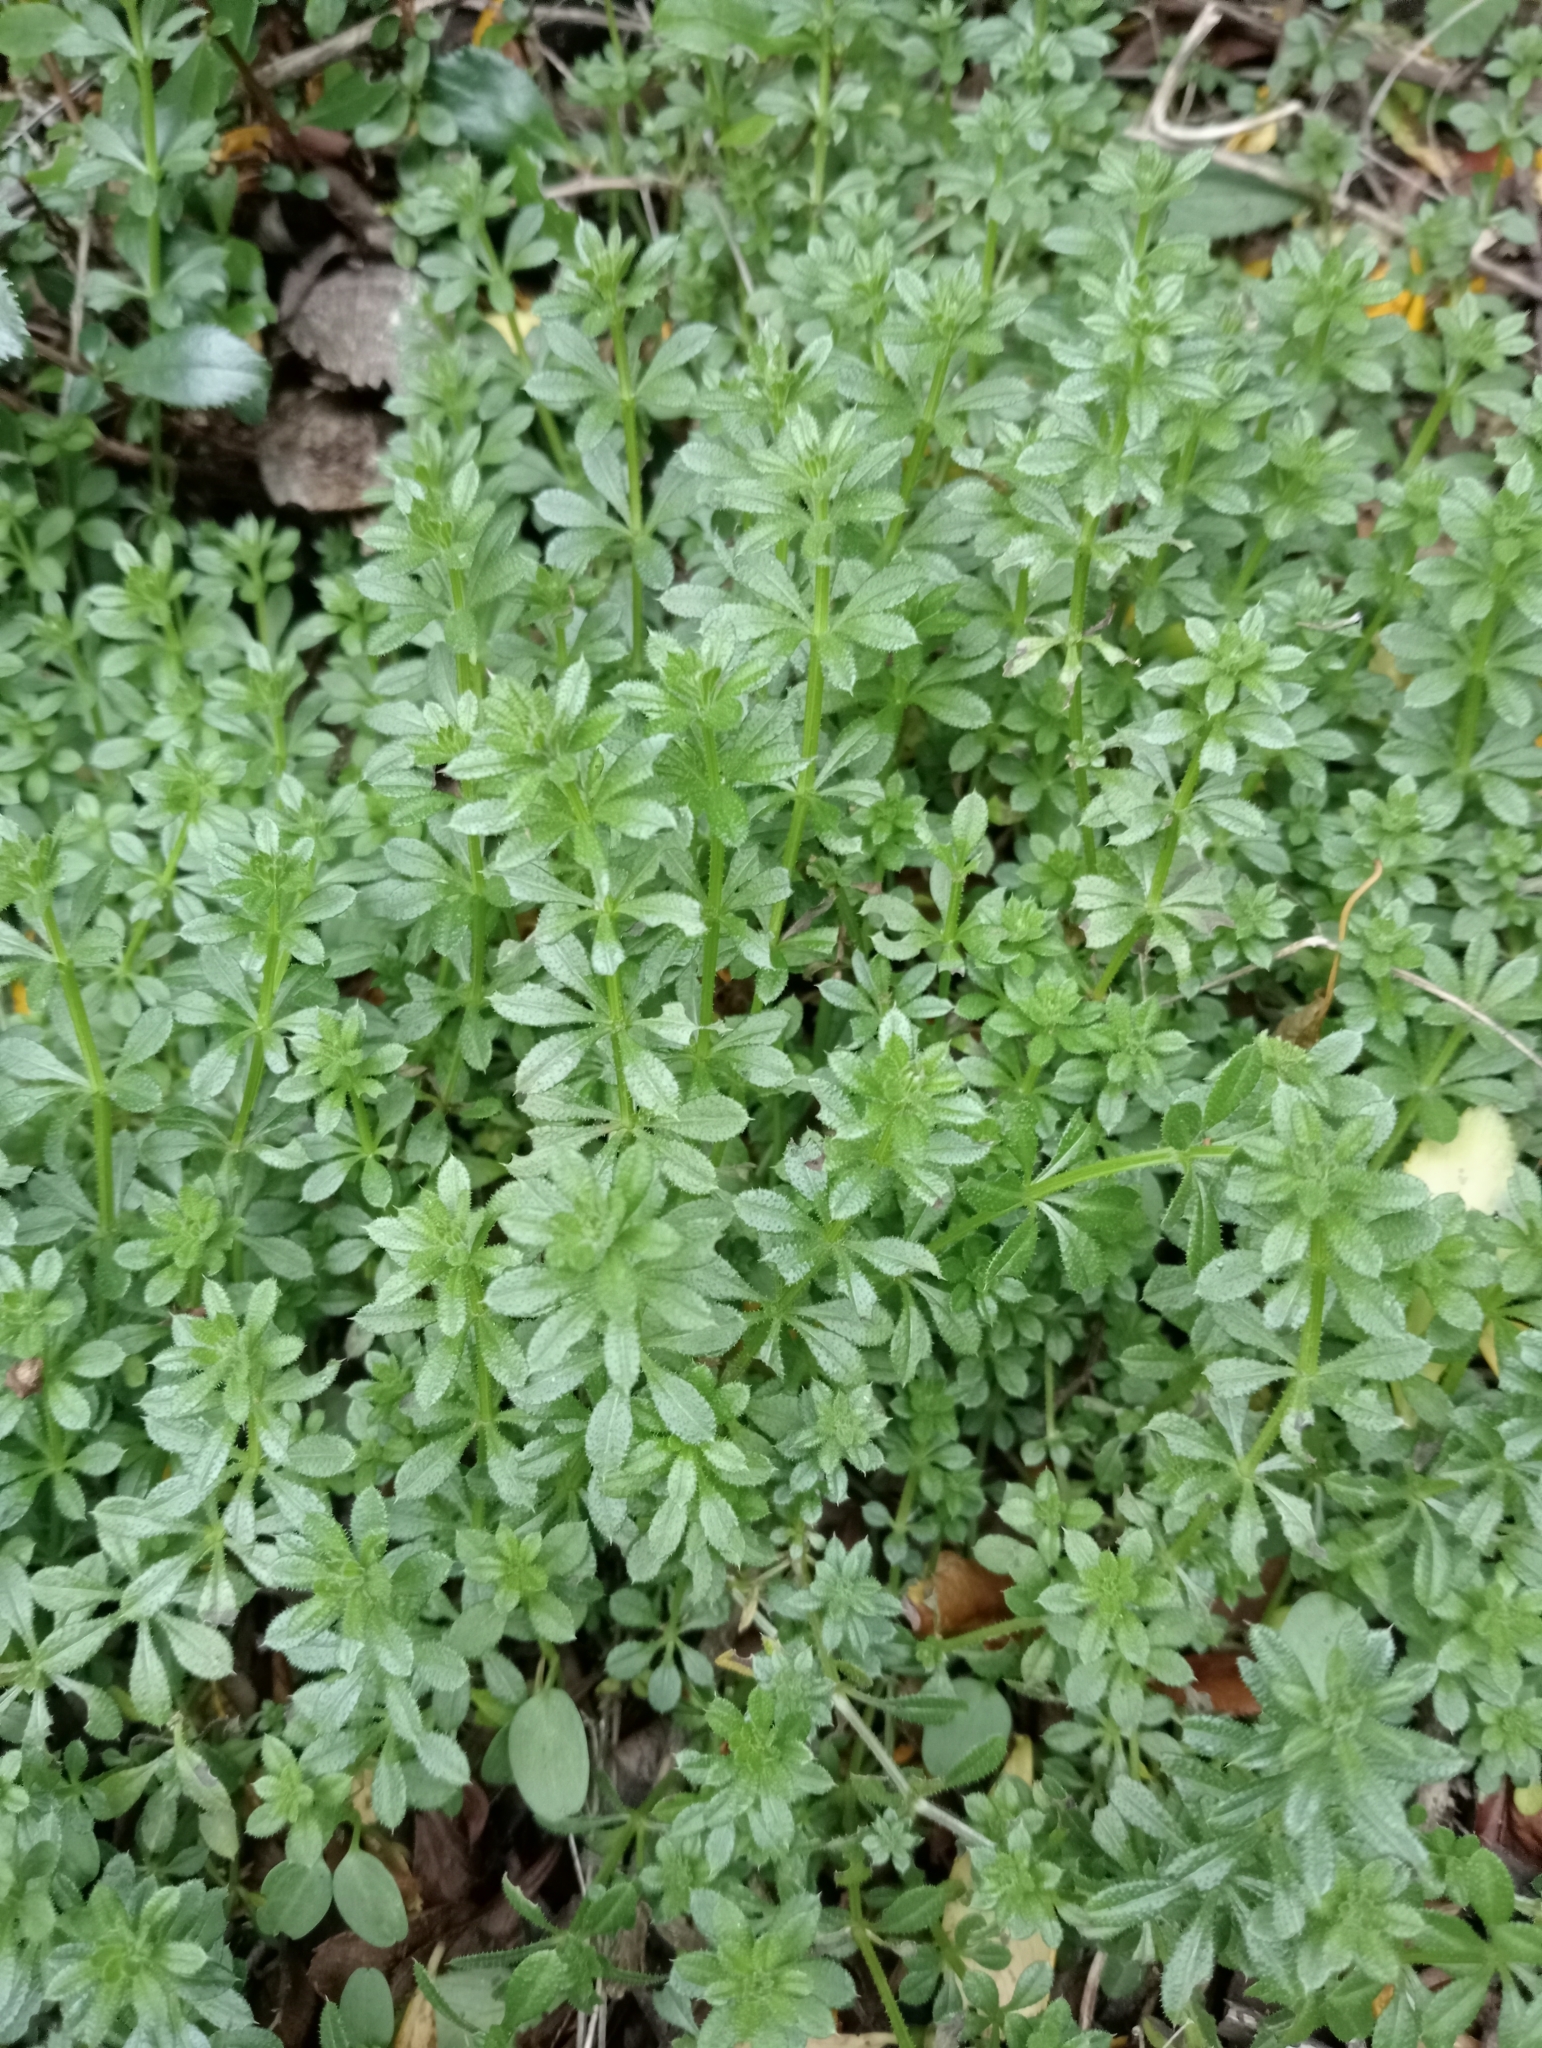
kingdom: Plantae
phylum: Tracheophyta
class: Magnoliopsida
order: Gentianales
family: Rubiaceae
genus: Galium
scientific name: Galium aparine
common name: Cleavers
